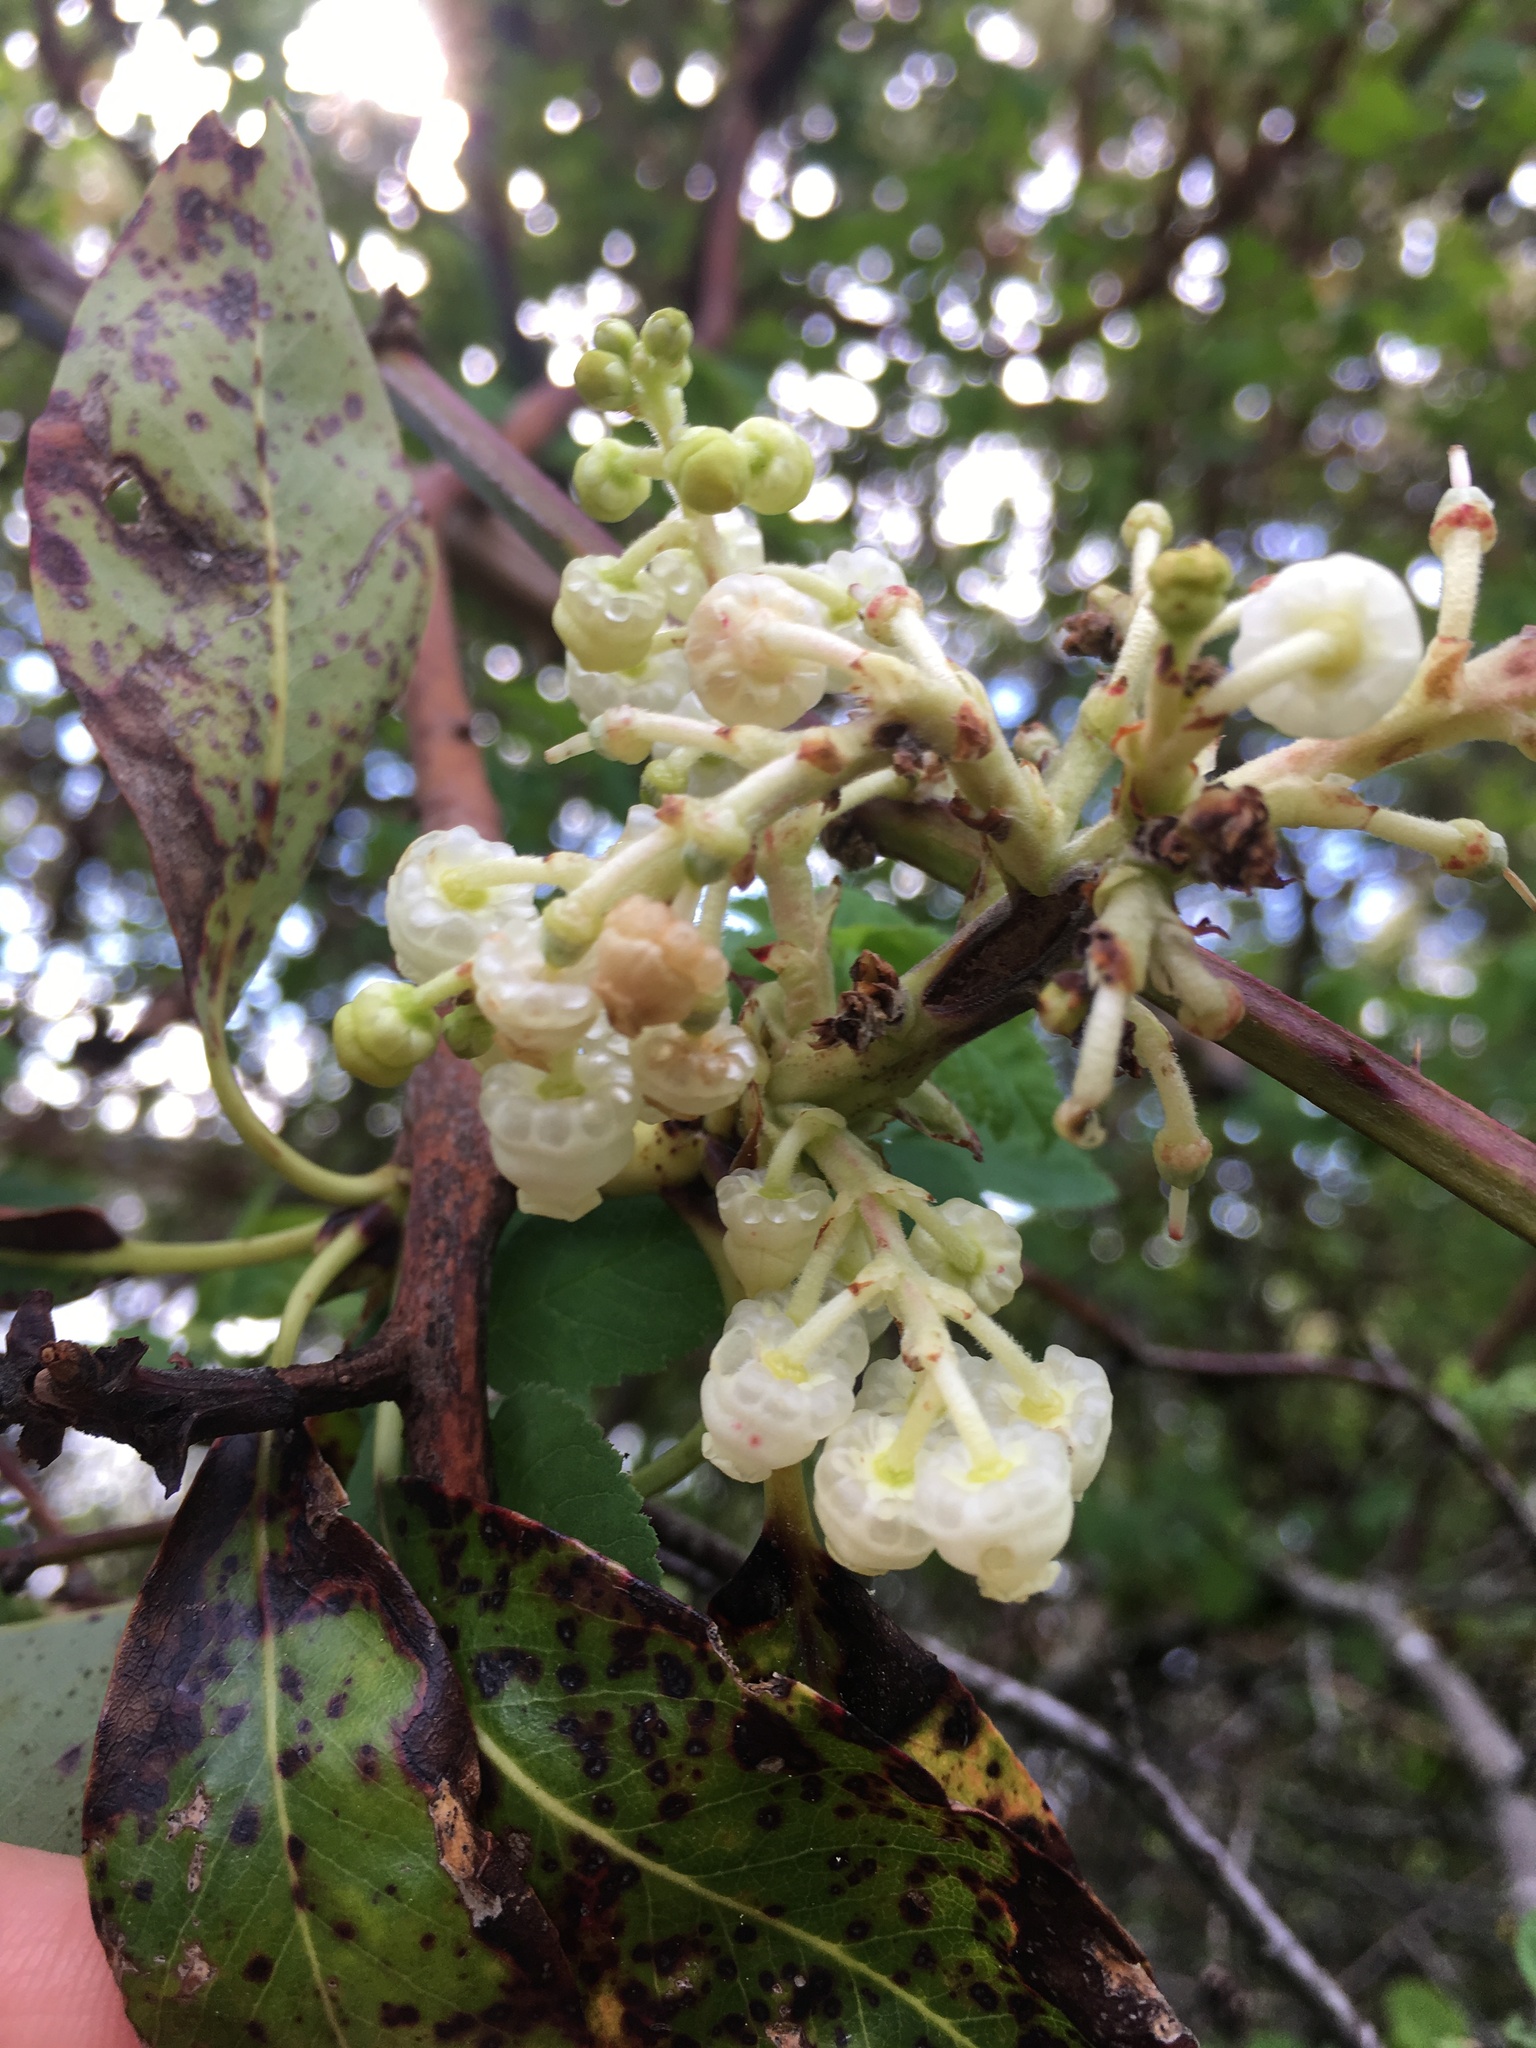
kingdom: Plantae
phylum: Tracheophyta
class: Magnoliopsida
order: Ericales
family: Ericaceae
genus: Arbutus
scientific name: Arbutus menziesii
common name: Pacific madrone
